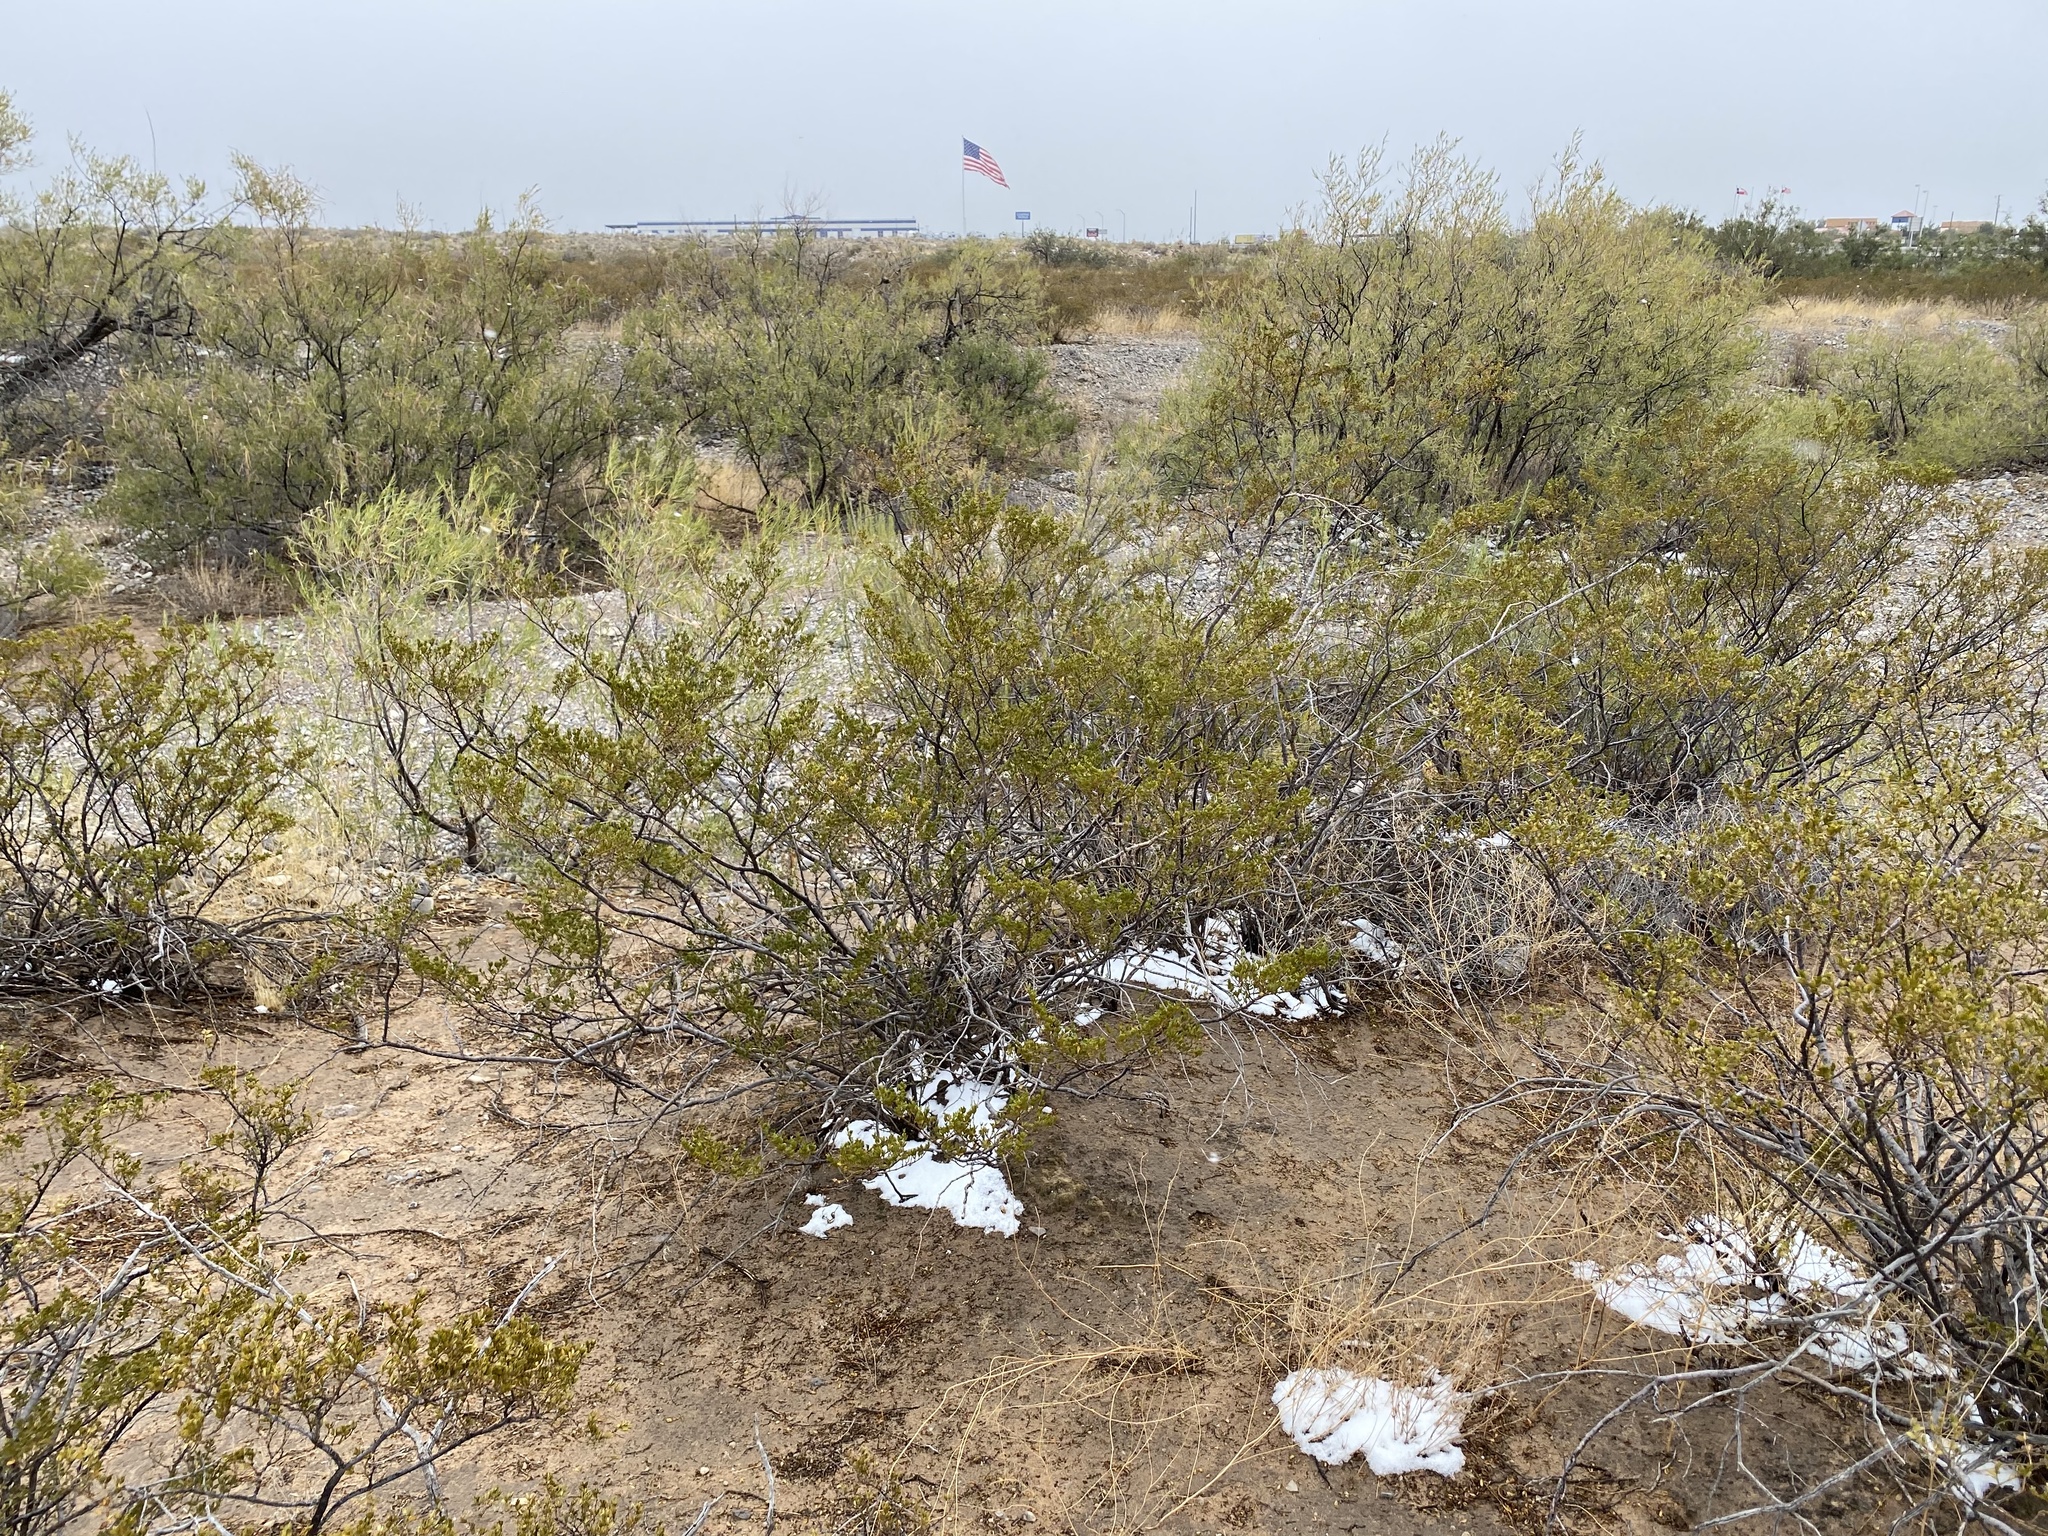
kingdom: Plantae
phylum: Tracheophyta
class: Magnoliopsida
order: Zygophyllales
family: Zygophyllaceae
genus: Larrea
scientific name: Larrea tridentata
